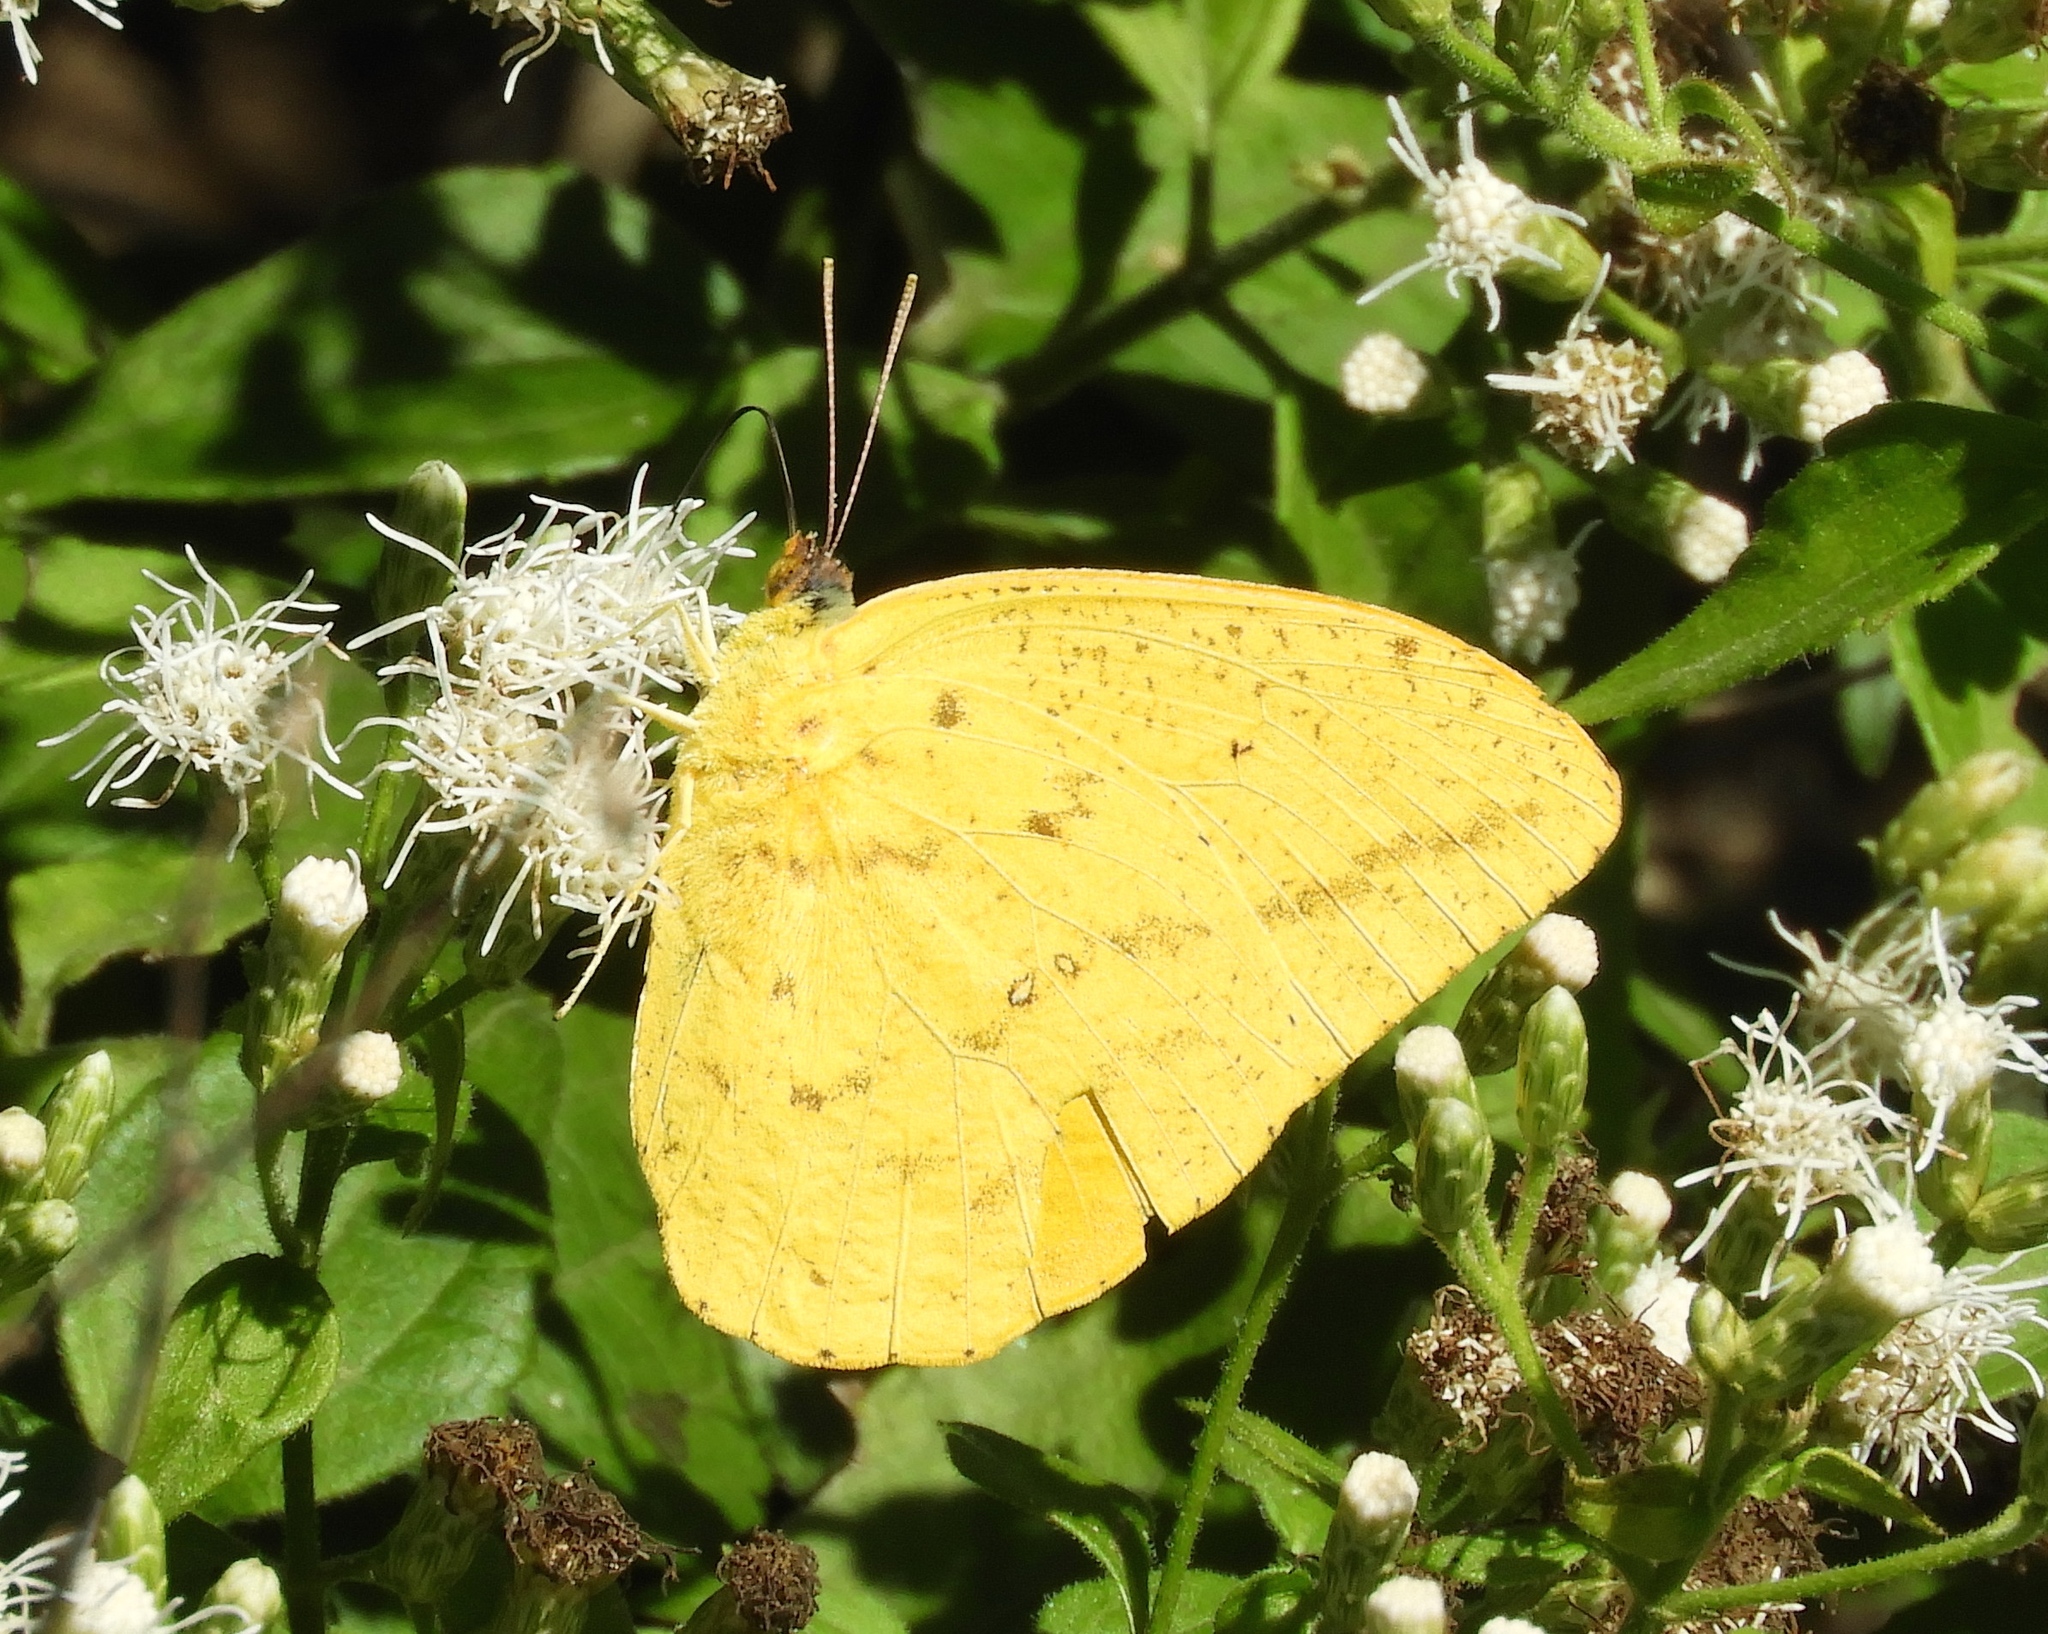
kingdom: Animalia
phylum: Arthropoda
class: Insecta
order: Lepidoptera
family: Pieridae
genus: Phoebis
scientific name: Phoebis agarithe
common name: Large orange sulphur
